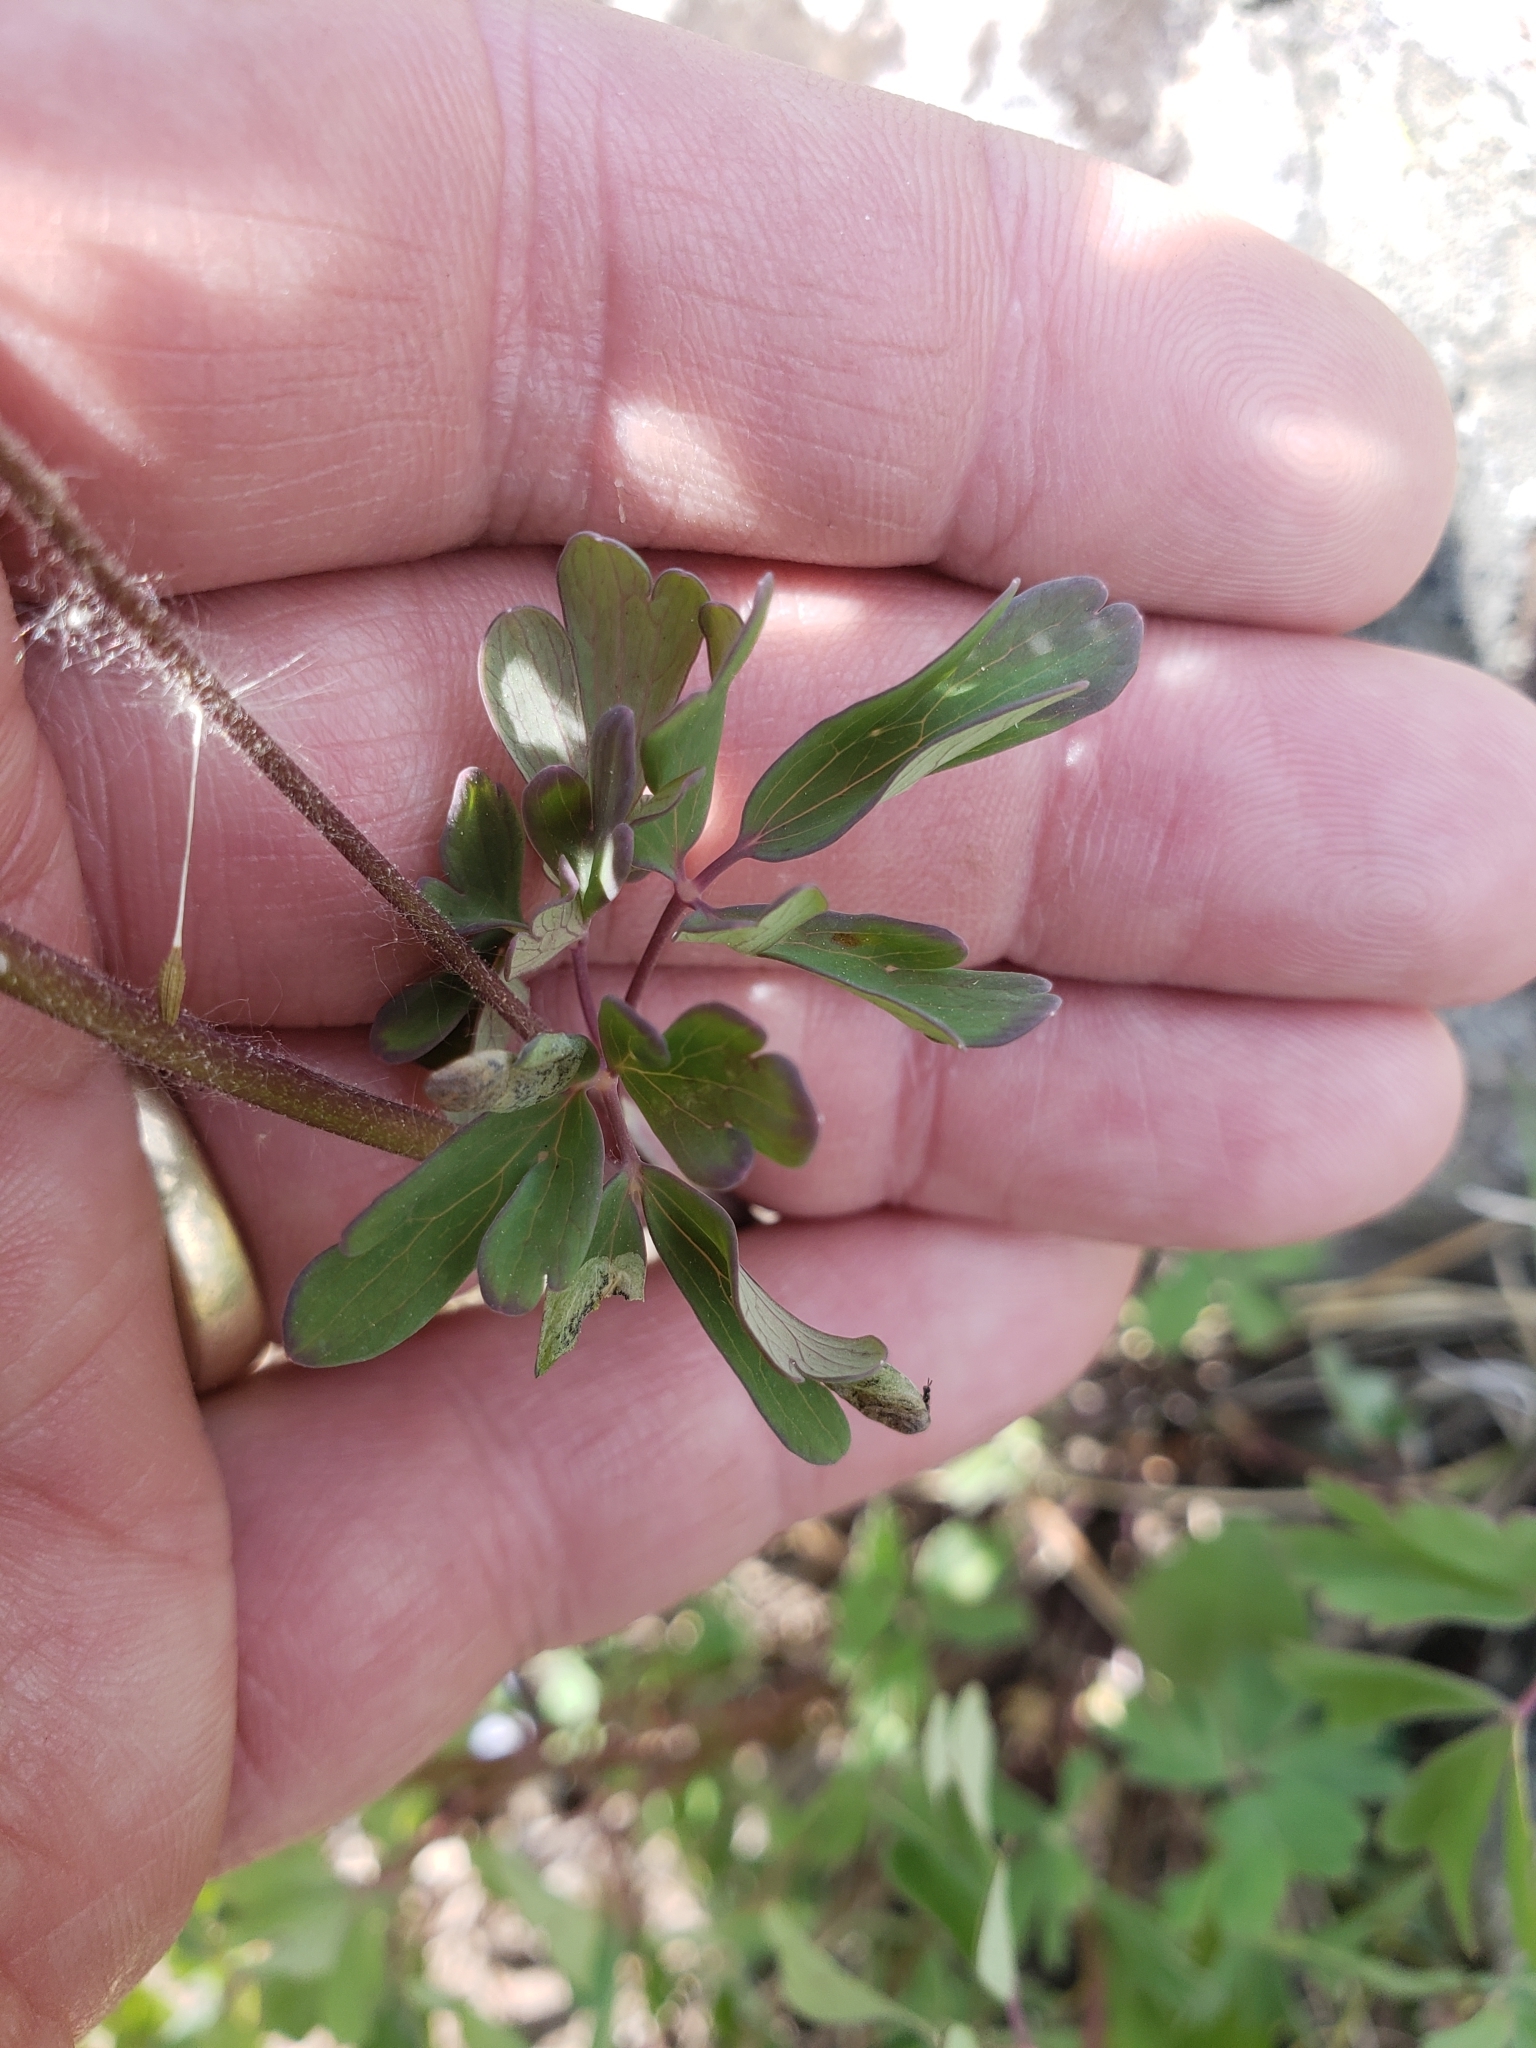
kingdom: Plantae
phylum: Tracheophyta
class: Magnoliopsida
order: Ranunculales
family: Ranunculaceae
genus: Aquilegia
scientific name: Aquilegia coerulea
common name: Rocky mountain columbine
